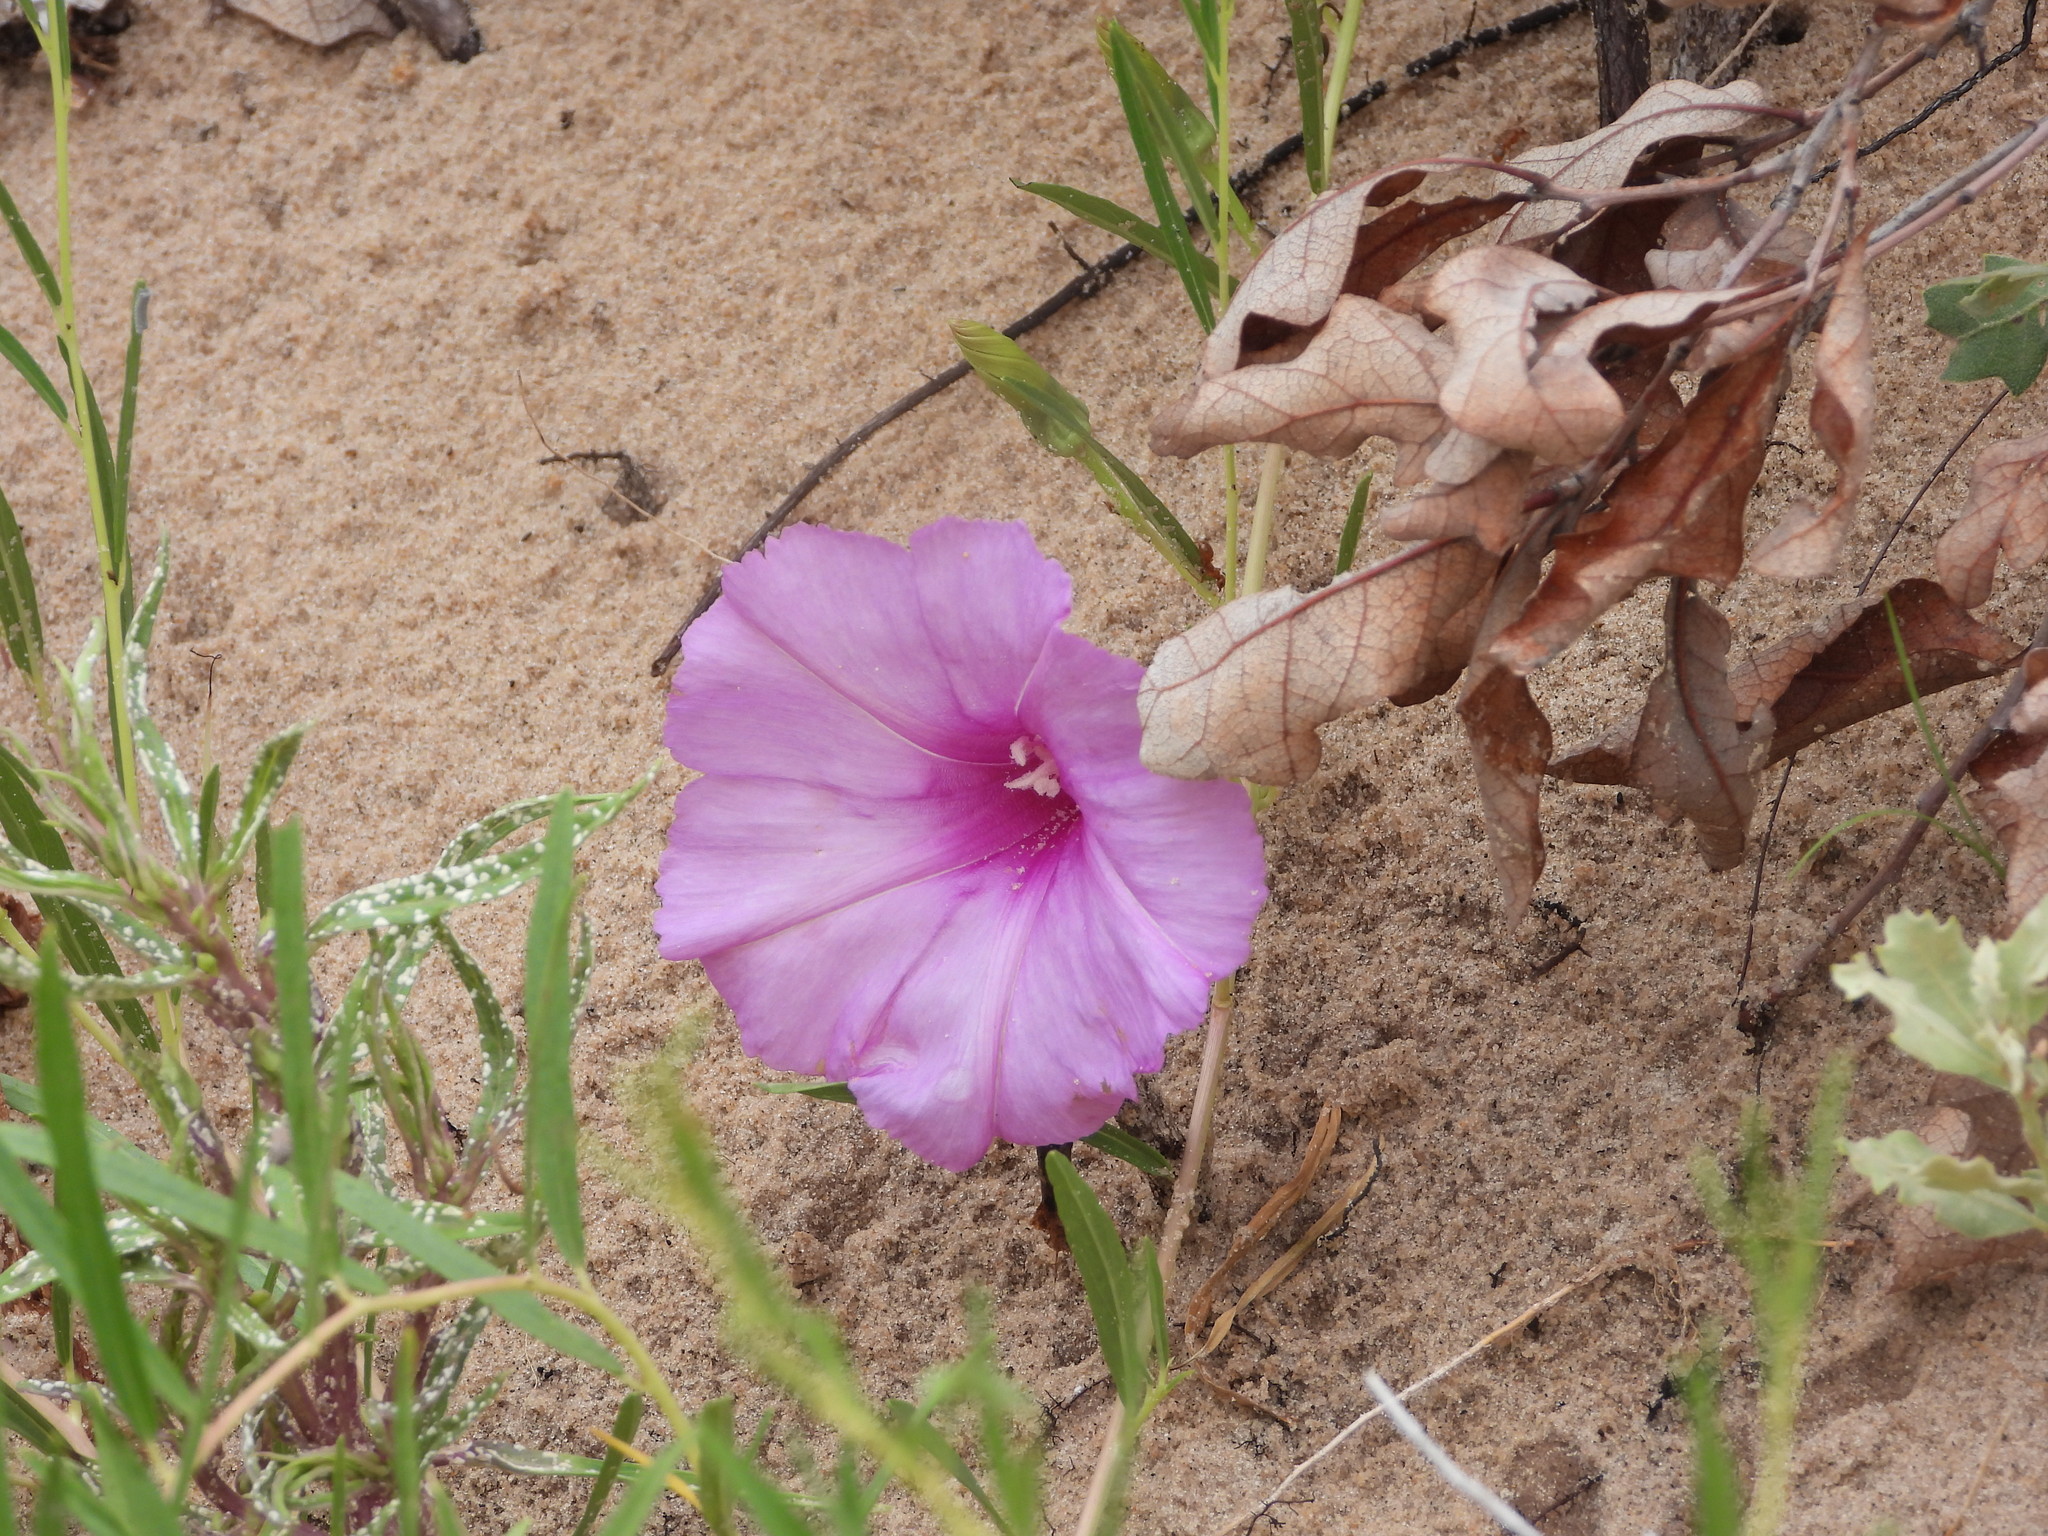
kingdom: Plantae
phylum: Tracheophyta
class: Magnoliopsida
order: Solanales
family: Convolvulaceae
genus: Ipomoea
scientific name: Ipomoea leptophylla
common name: Bush moonflower
